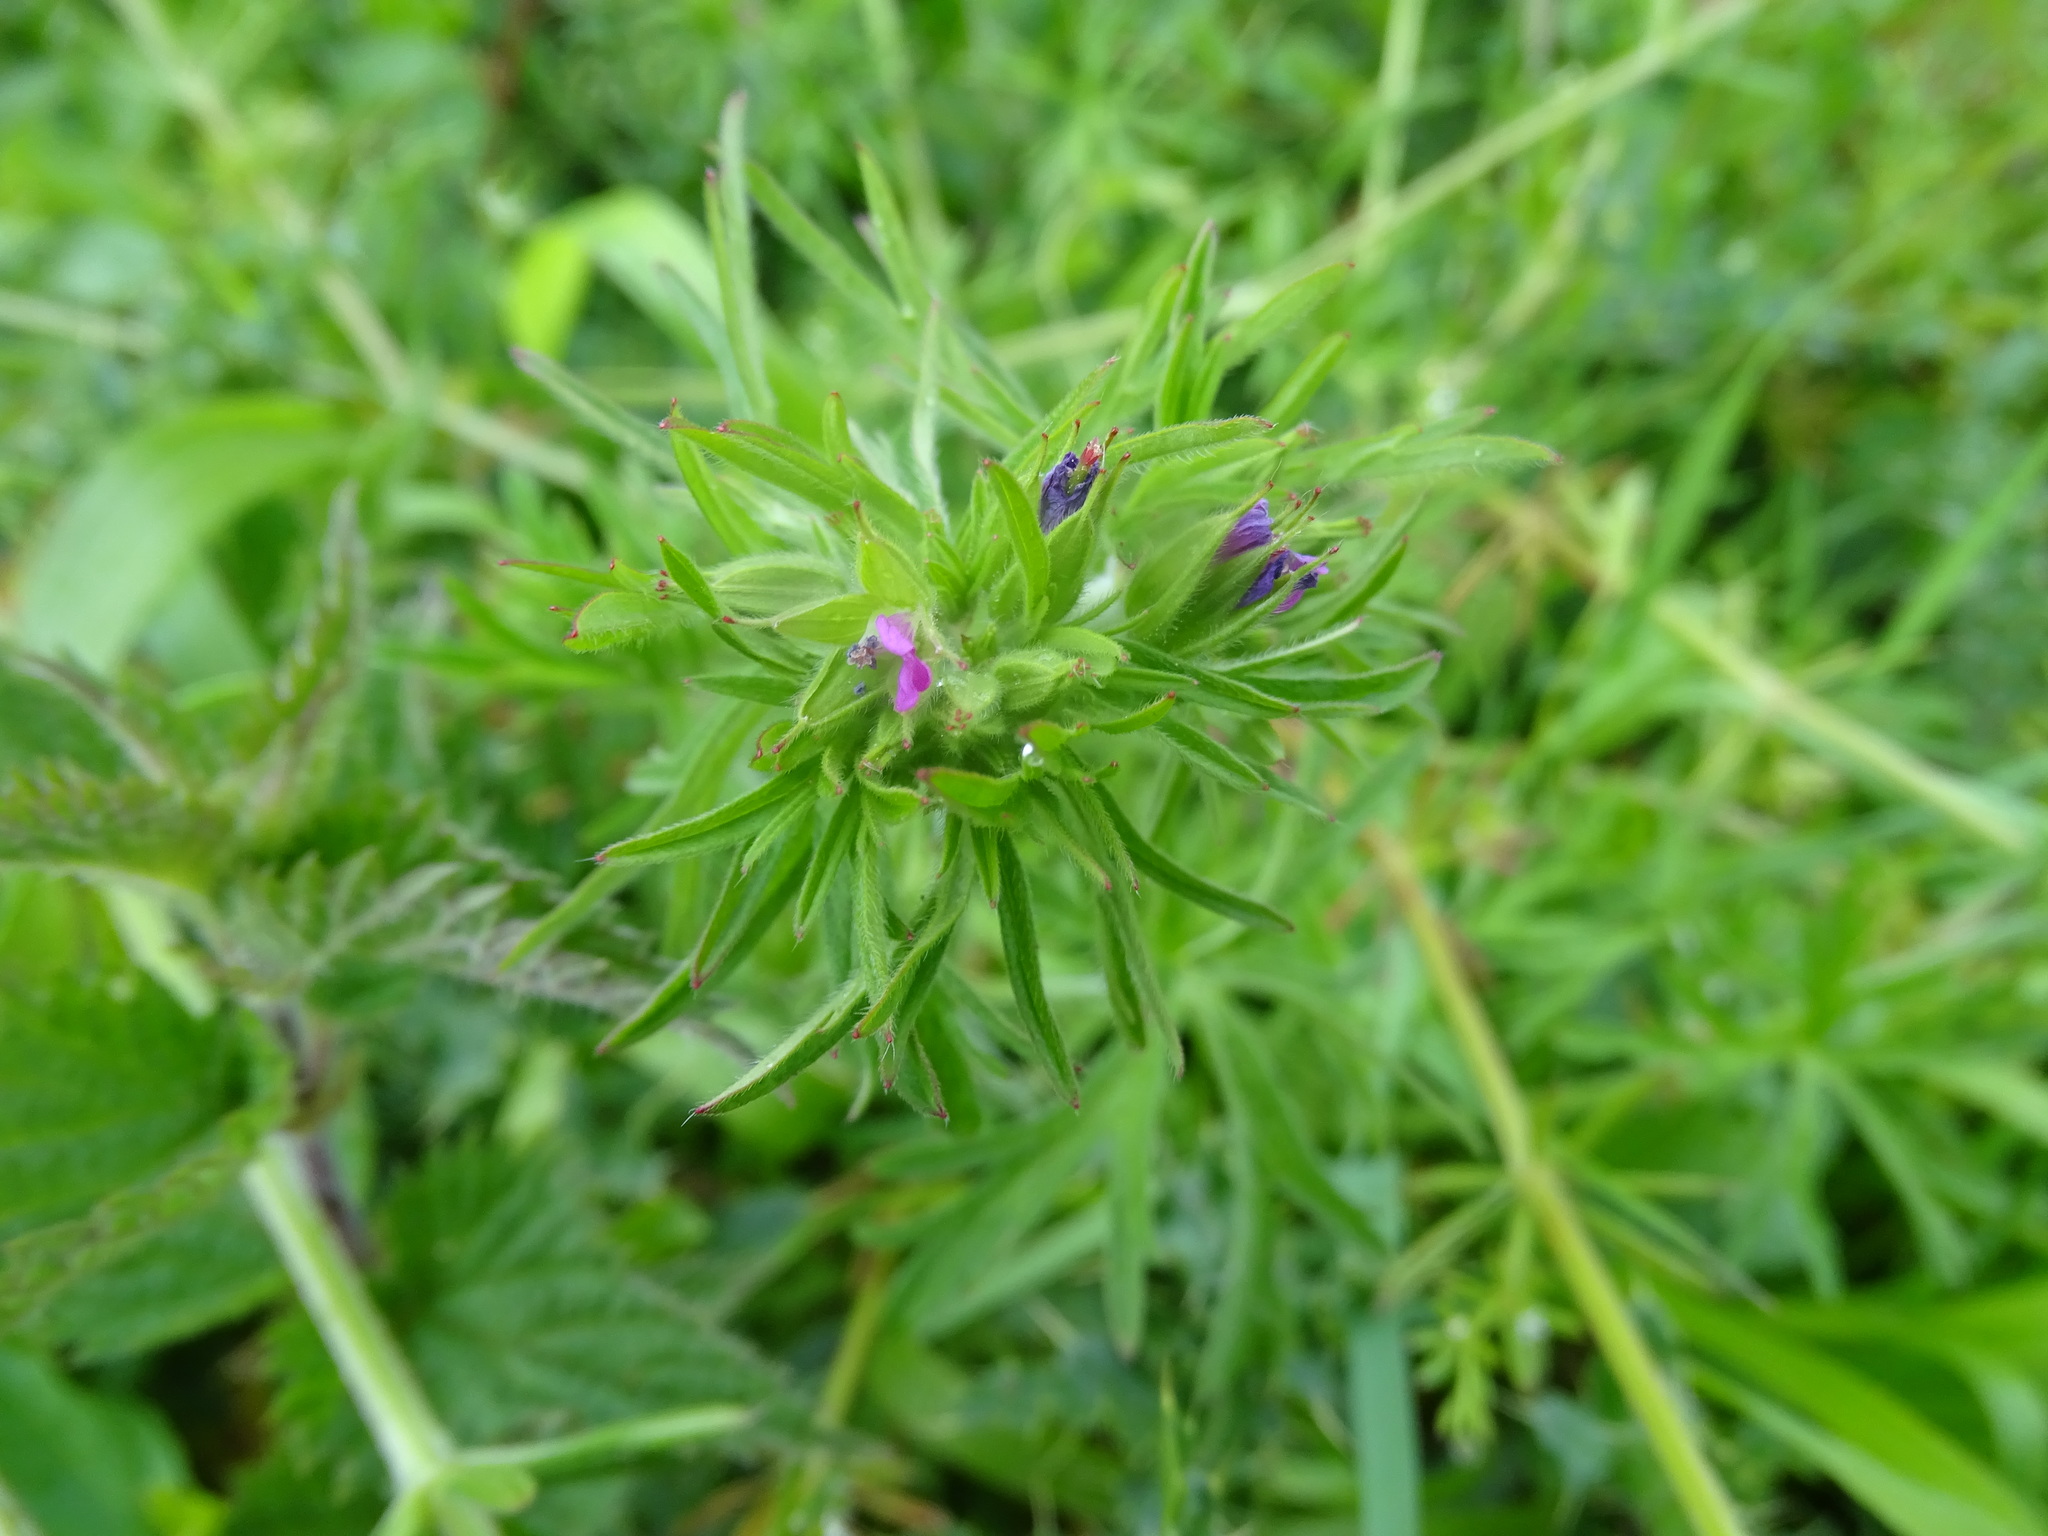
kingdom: Plantae
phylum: Tracheophyta
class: Magnoliopsida
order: Geraniales
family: Geraniaceae
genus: Geranium
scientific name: Geranium dissectum
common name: Cut-leaved crane's-bill
